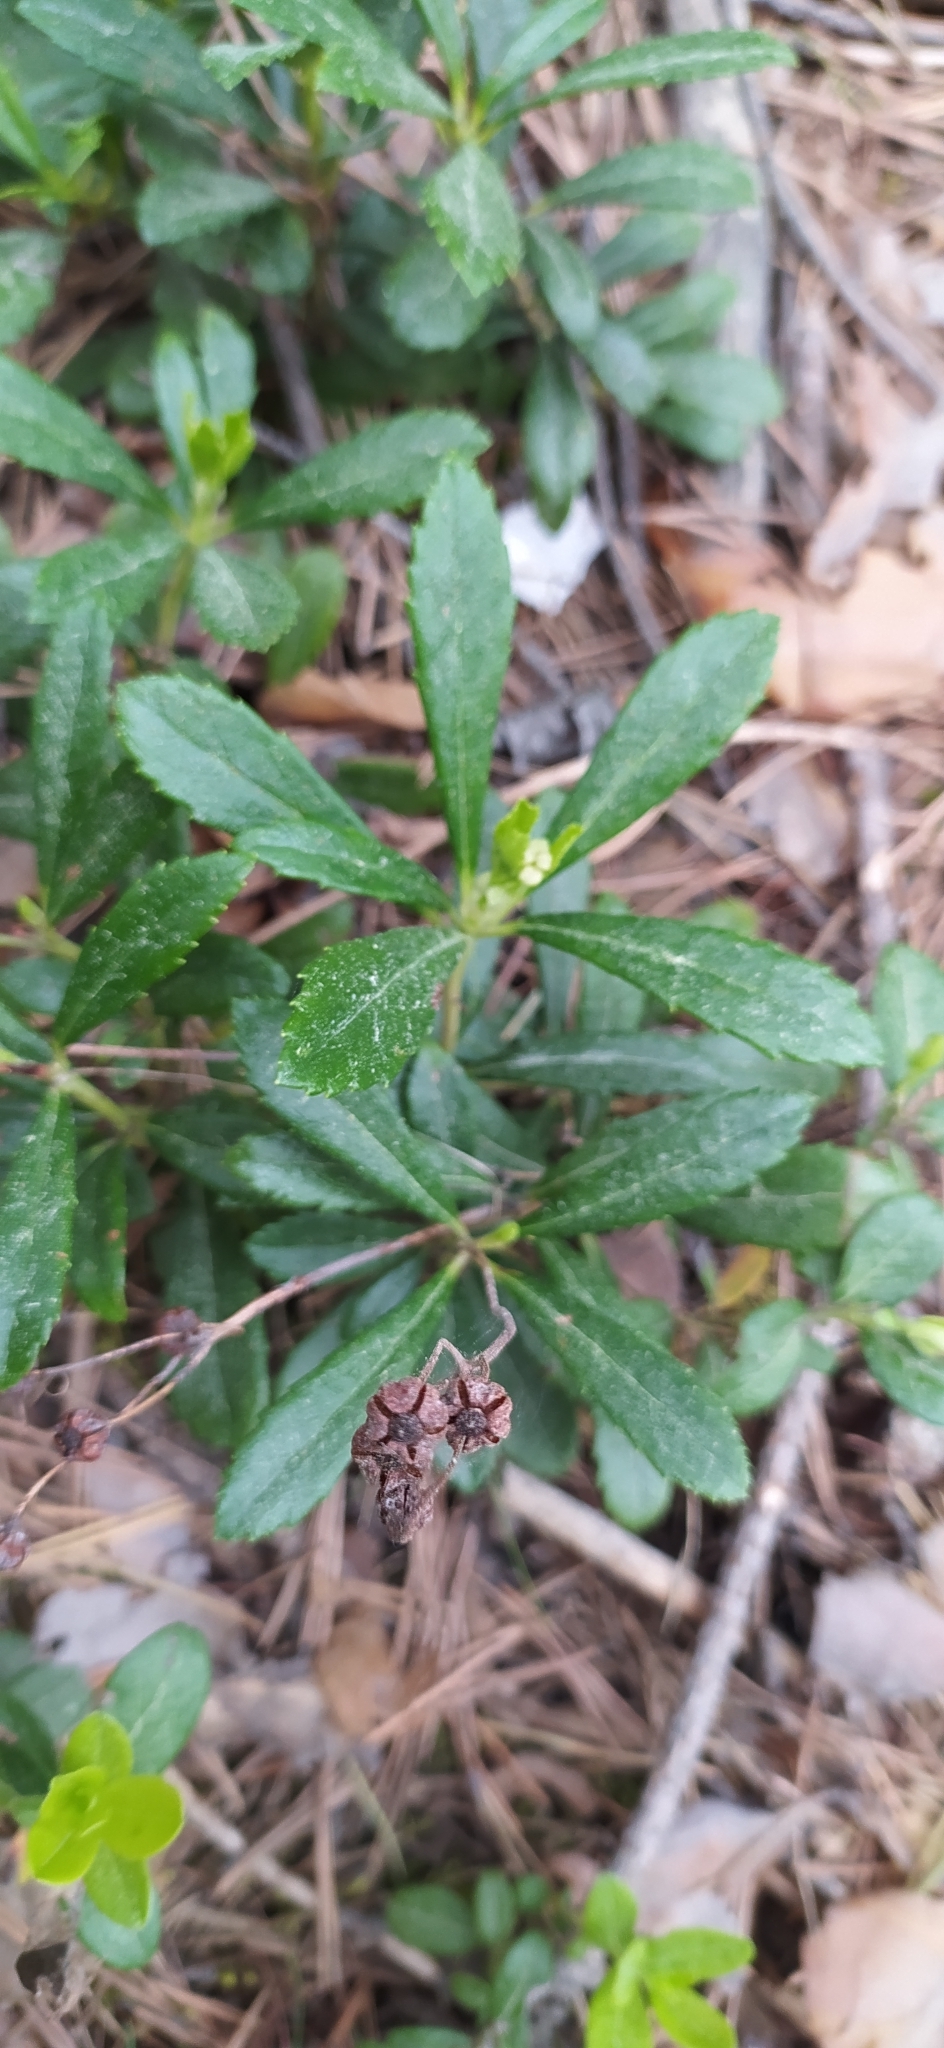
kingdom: Plantae
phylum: Tracheophyta
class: Magnoliopsida
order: Ericales
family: Ericaceae
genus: Chimaphila
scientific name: Chimaphila umbellata
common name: Pipsissewa
